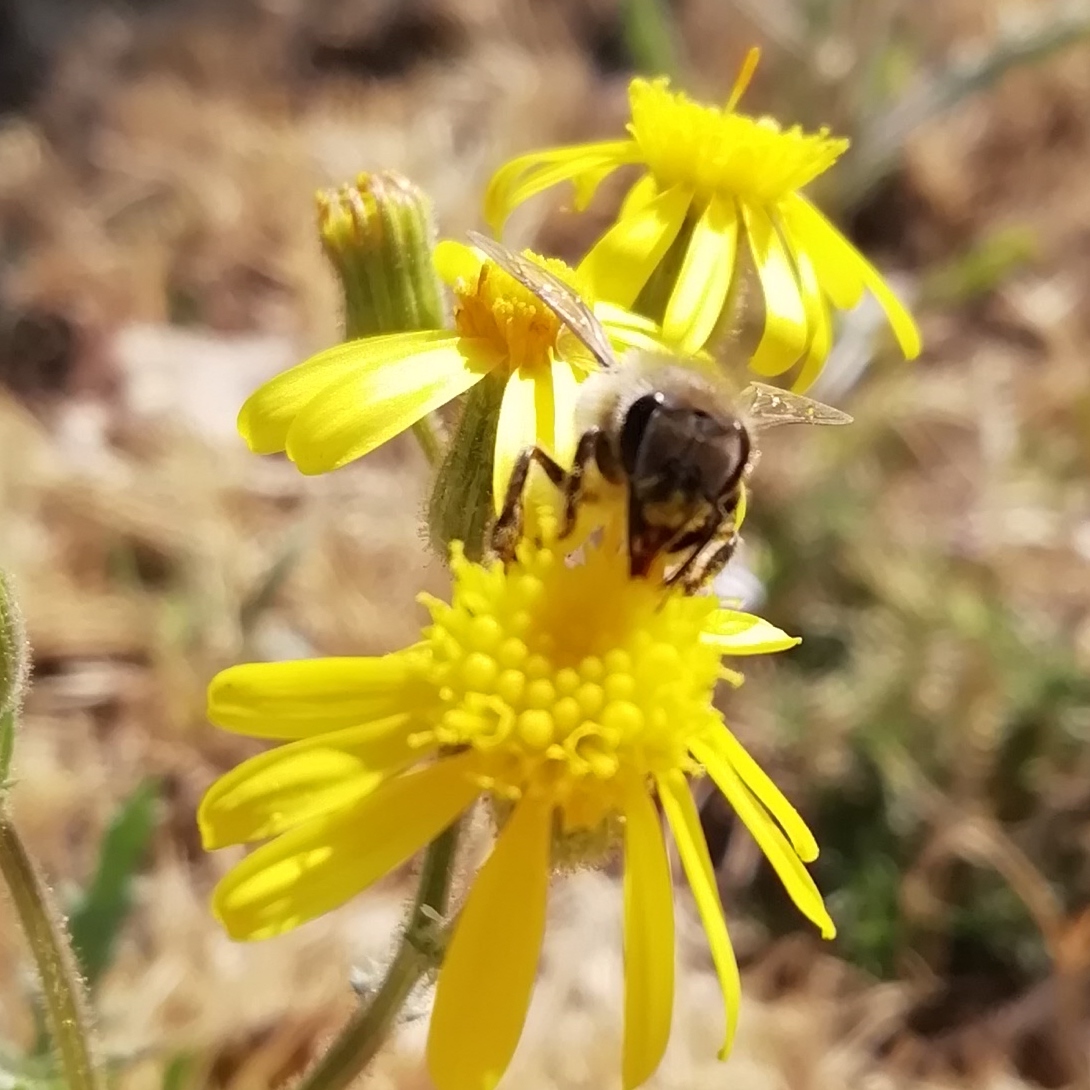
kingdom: Animalia
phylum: Arthropoda
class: Insecta
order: Hymenoptera
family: Apidae
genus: Apis
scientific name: Apis mellifera
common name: Honey bee
